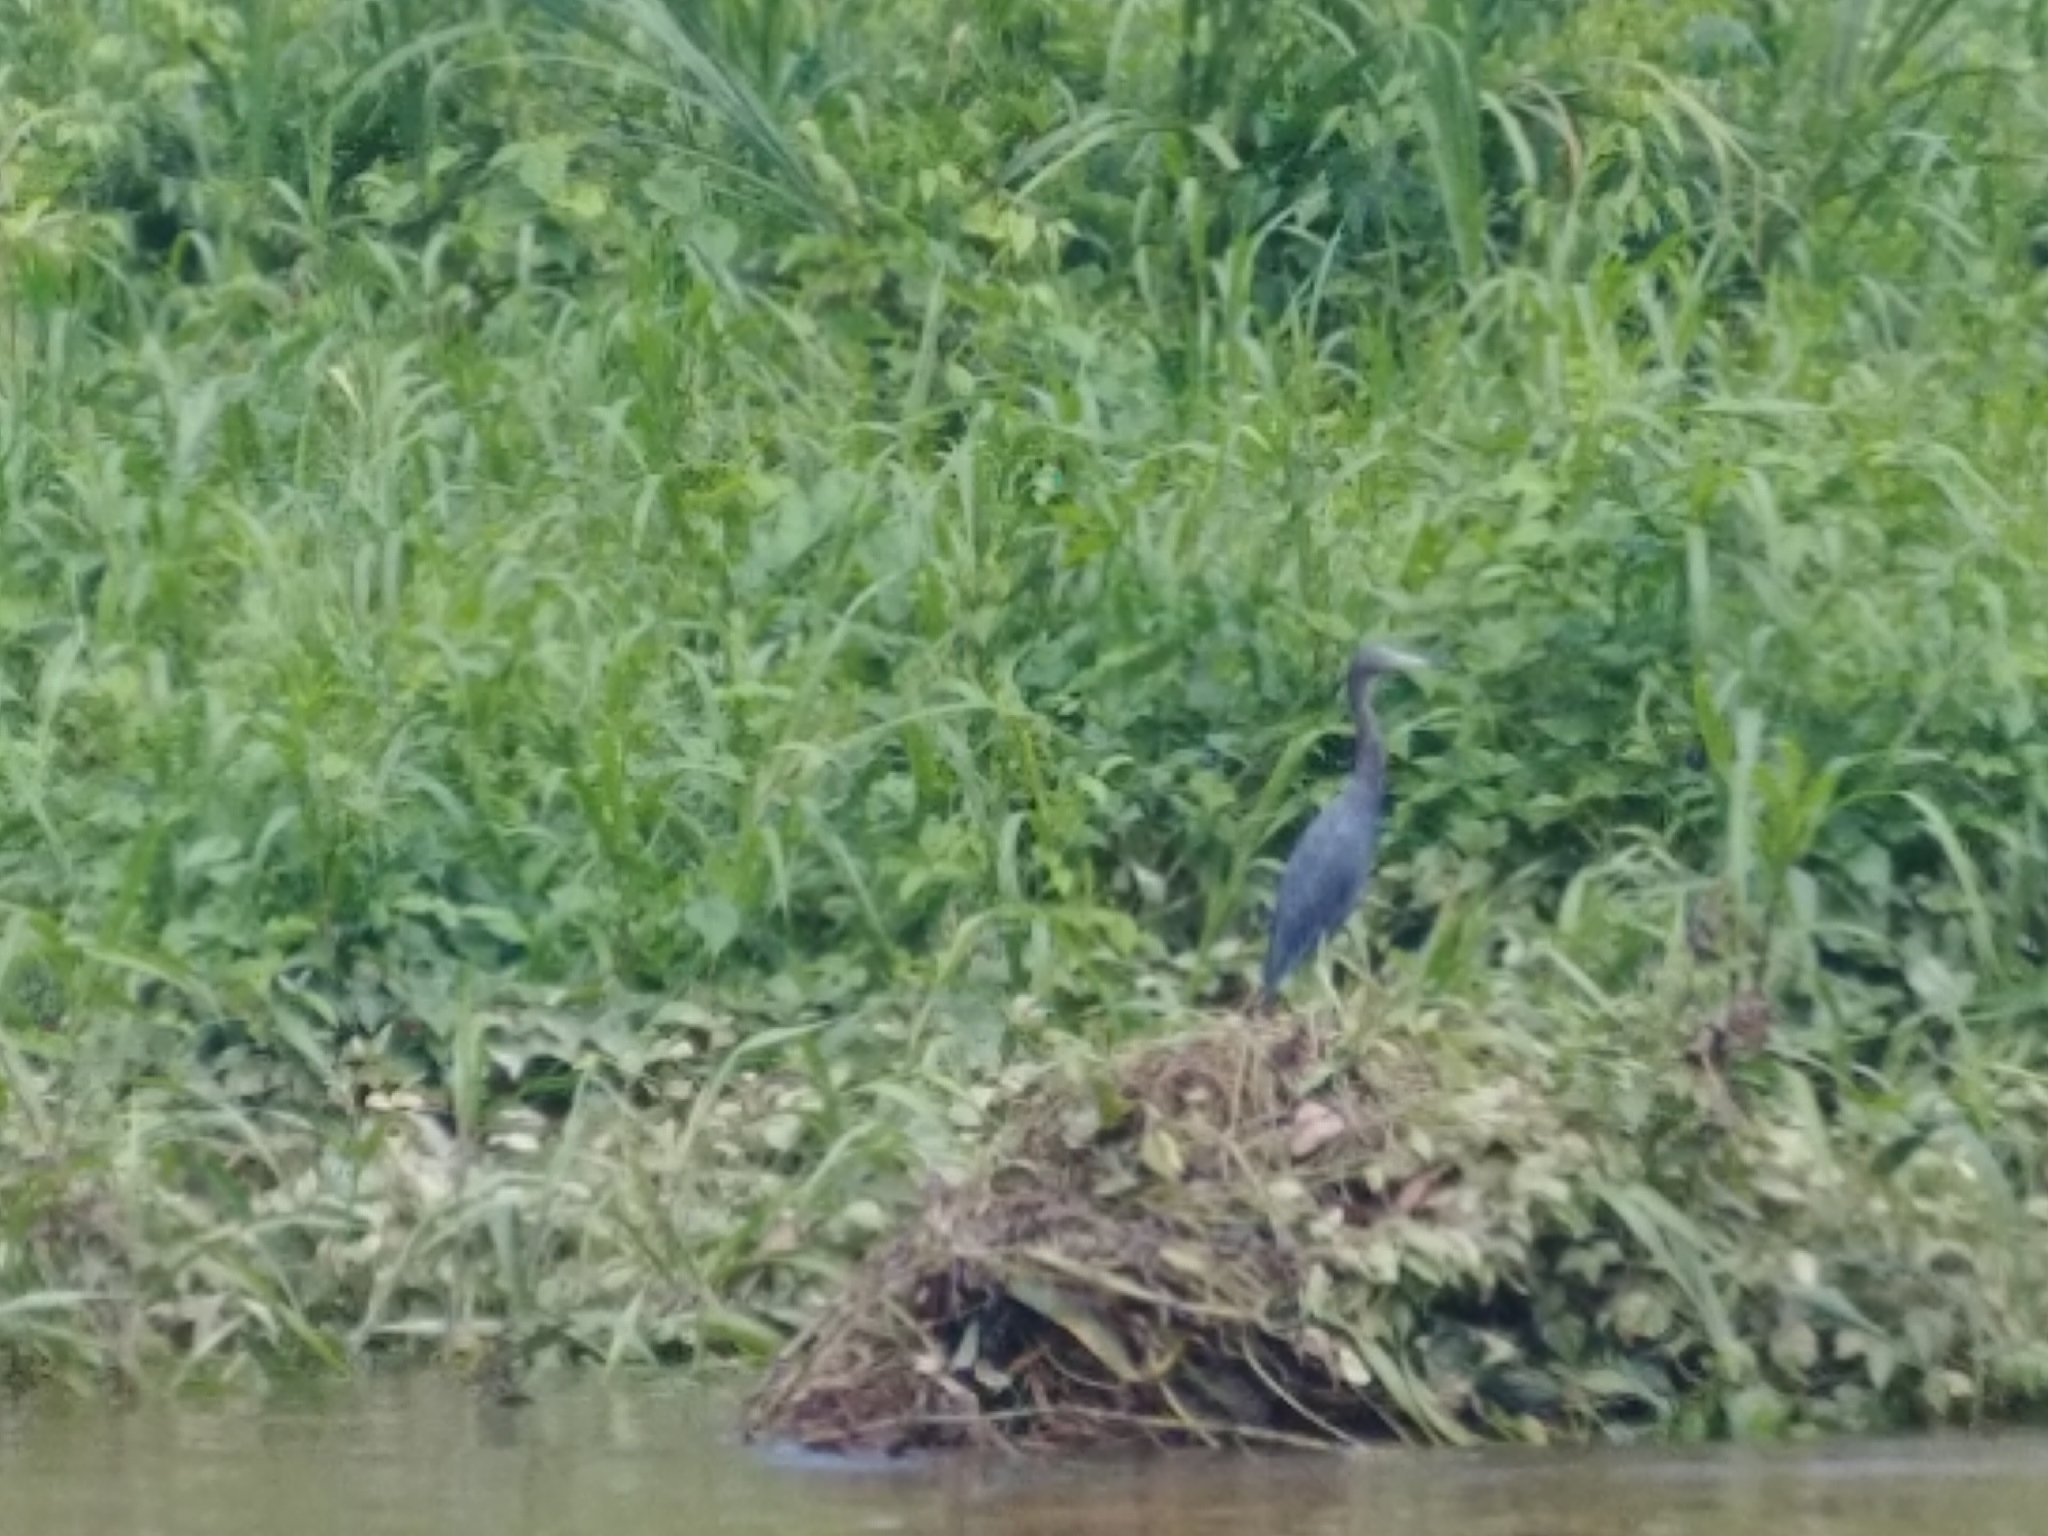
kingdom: Animalia
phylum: Chordata
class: Aves
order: Pelecaniformes
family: Ardeidae
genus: Egretta
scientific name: Egretta caerulea
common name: Little blue heron
